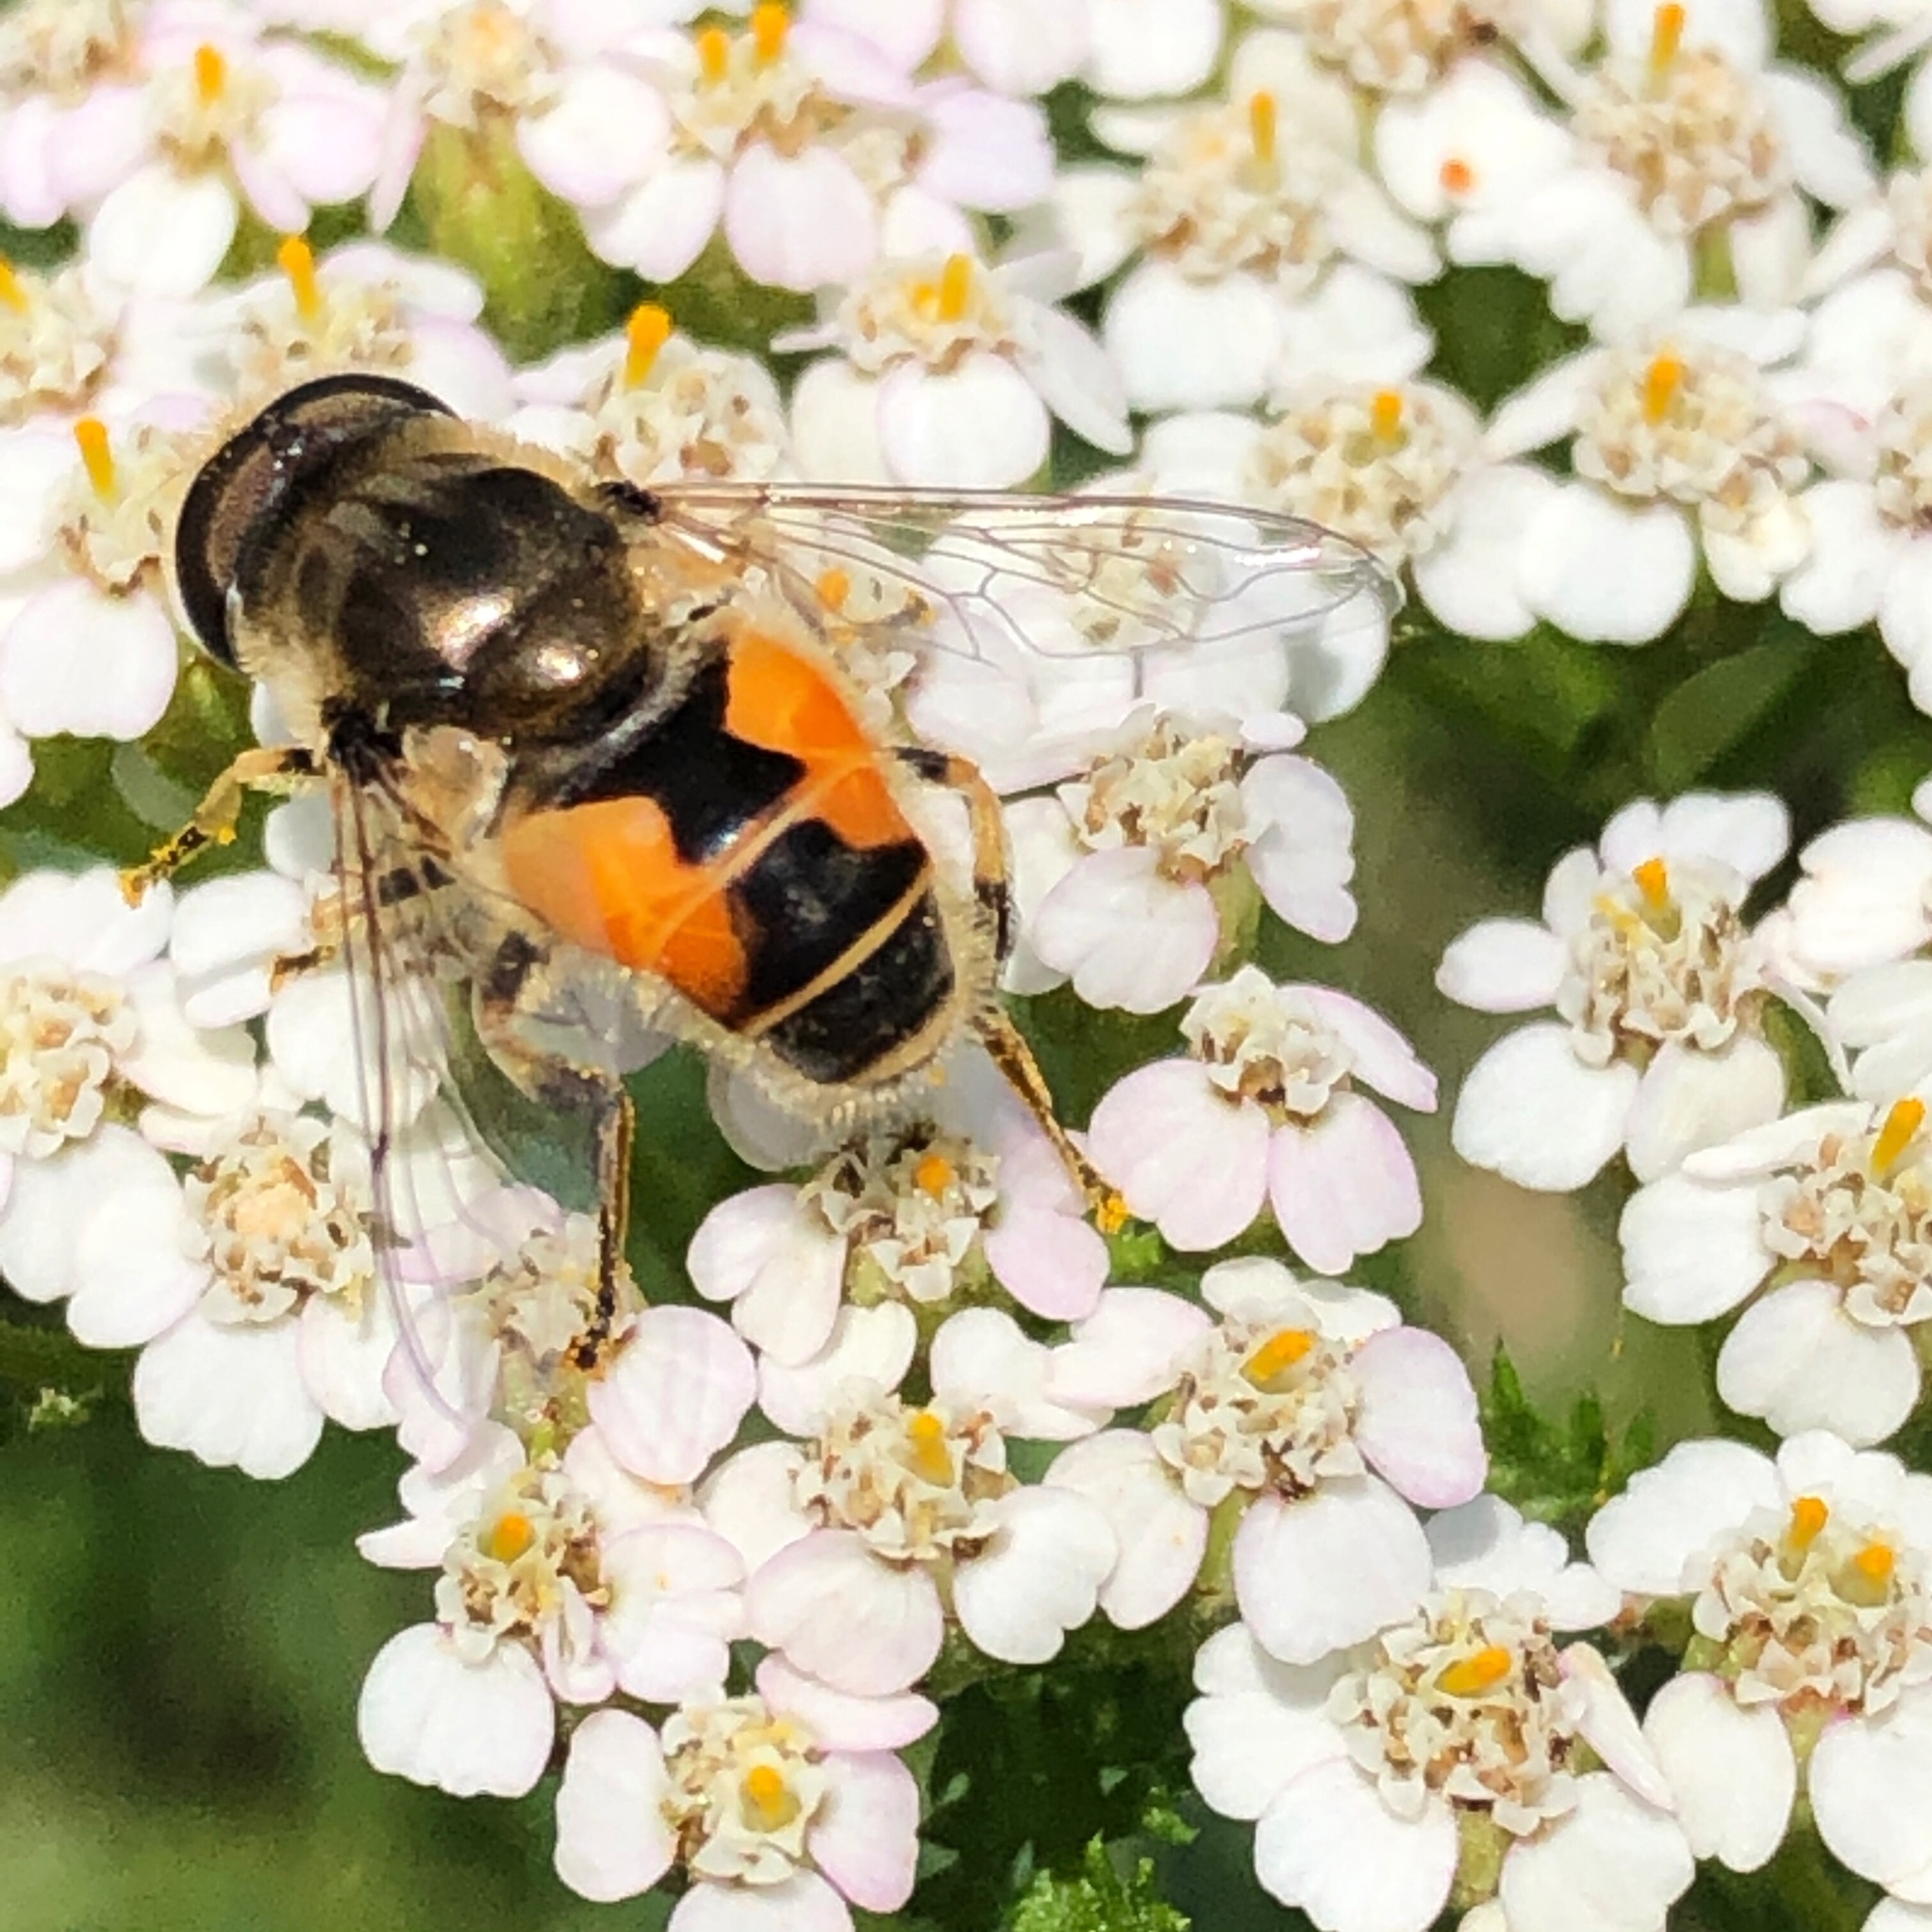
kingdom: Animalia
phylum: Arthropoda
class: Insecta
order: Diptera
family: Syrphidae
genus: Eristalis
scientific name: Eristalis arbustorum
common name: Hover fly
